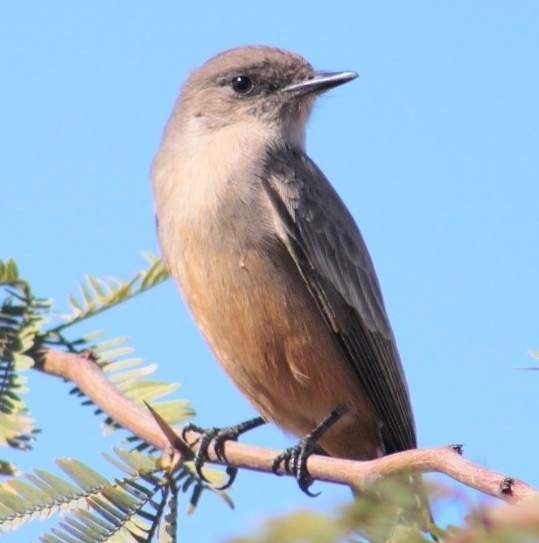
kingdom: Animalia
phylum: Chordata
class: Aves
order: Passeriformes
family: Tyrannidae
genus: Sayornis
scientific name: Sayornis saya
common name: Say's phoebe
